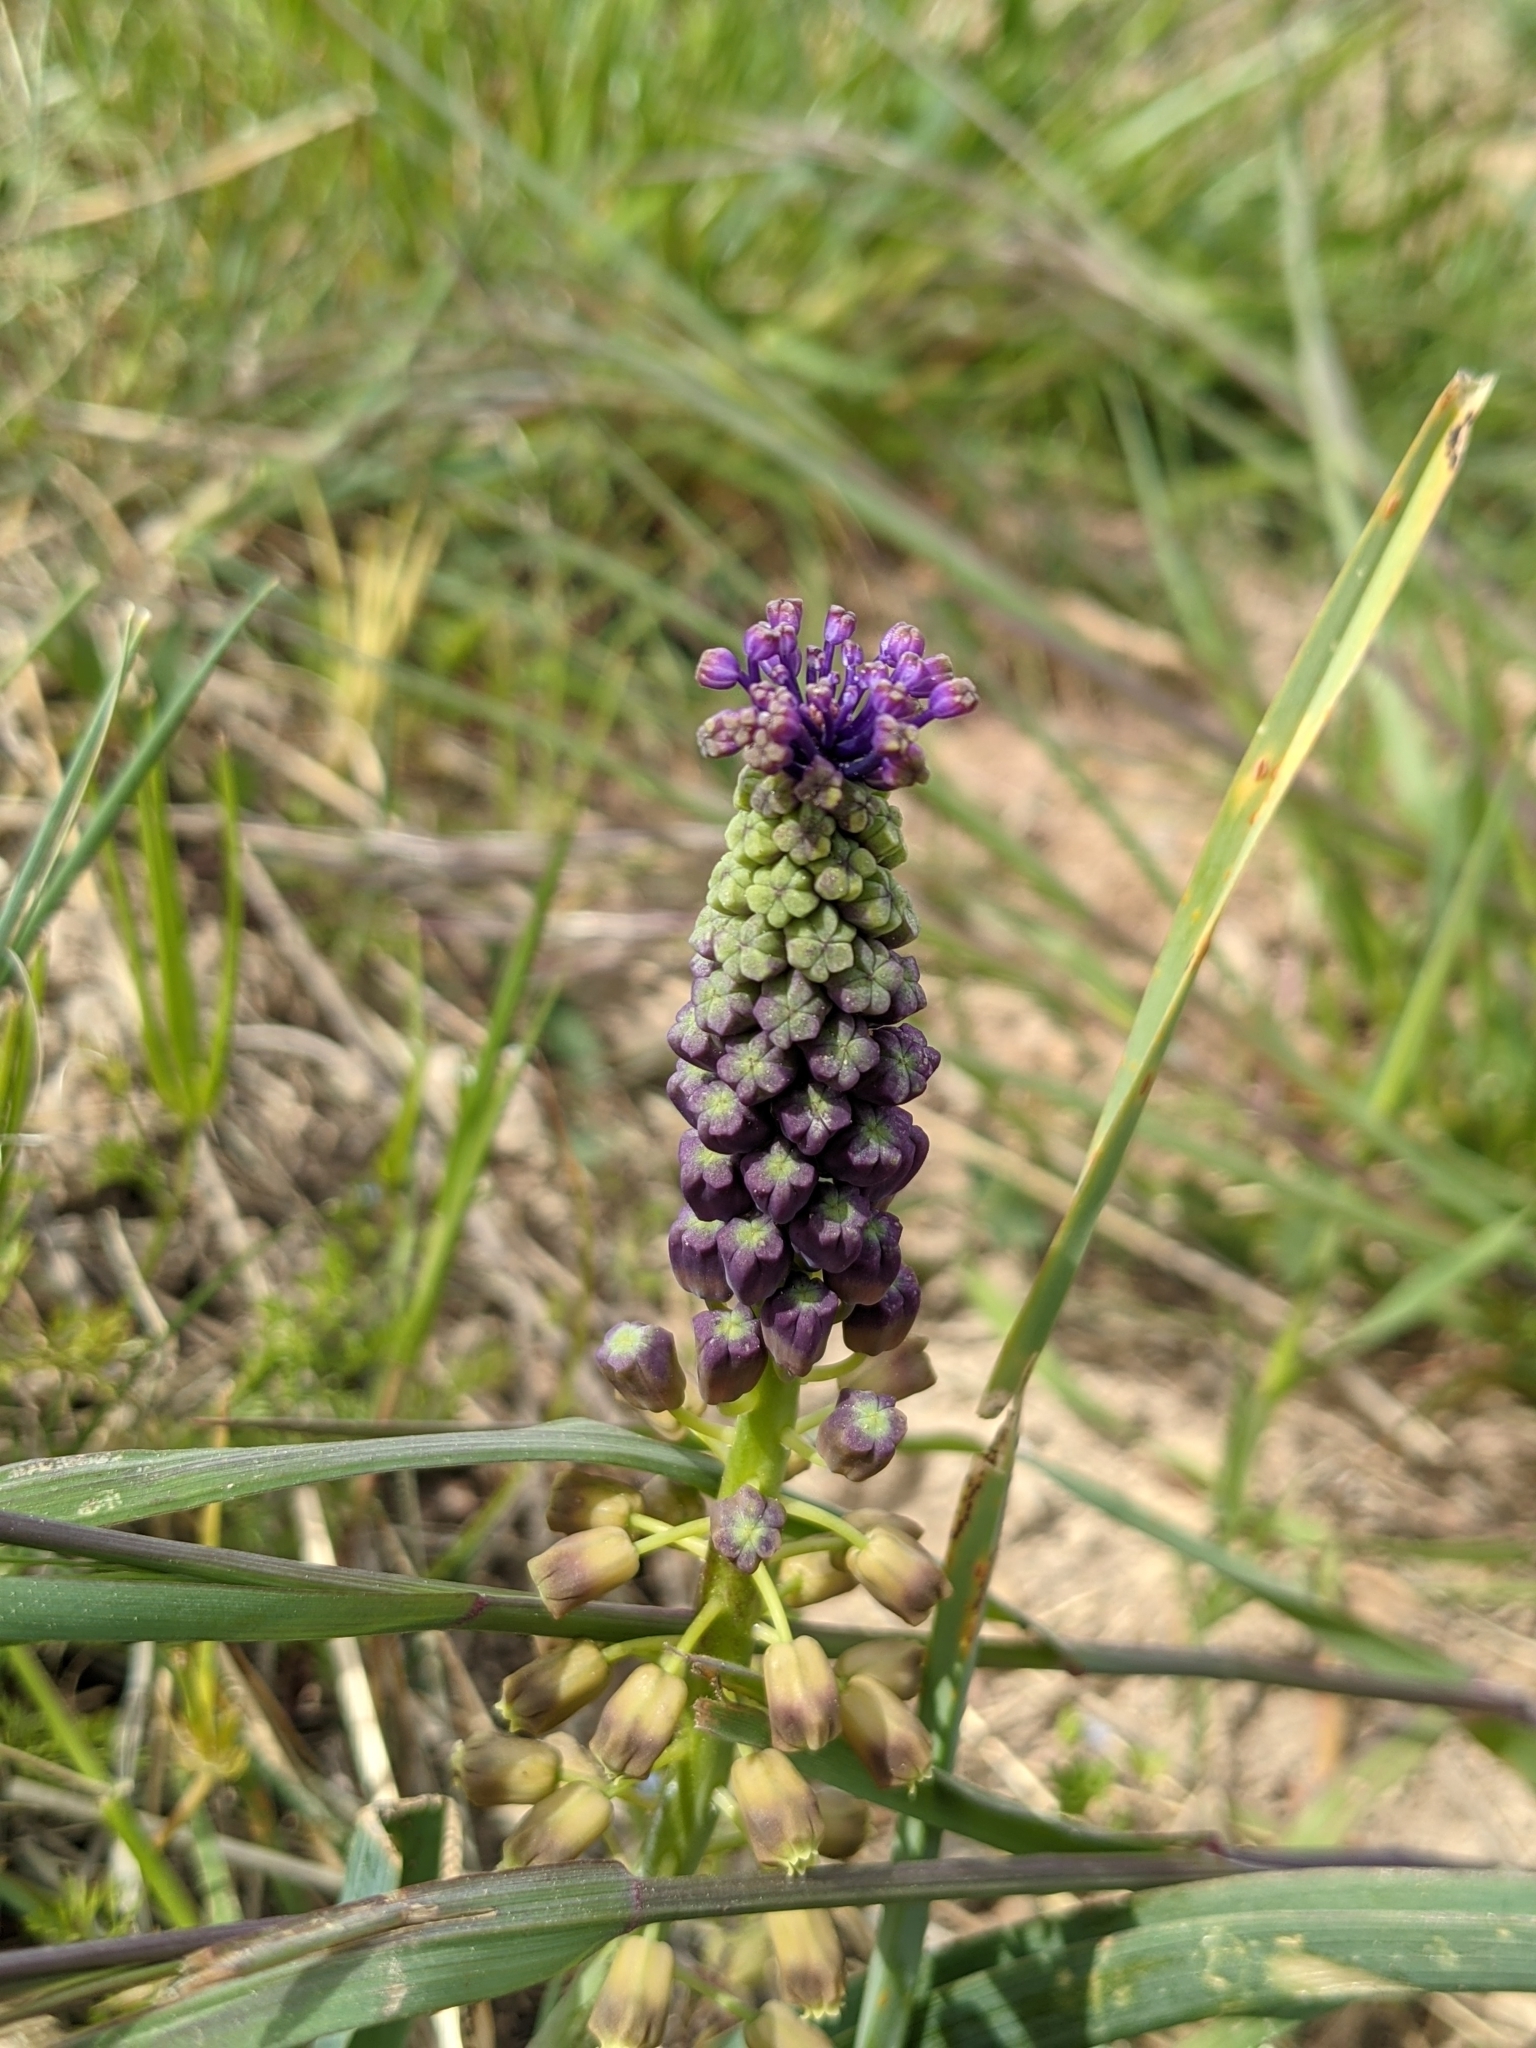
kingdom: Plantae
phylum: Tracheophyta
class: Liliopsida
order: Asparagales
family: Asparagaceae
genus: Muscari
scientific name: Muscari comosum
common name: Tassel hyacinth
